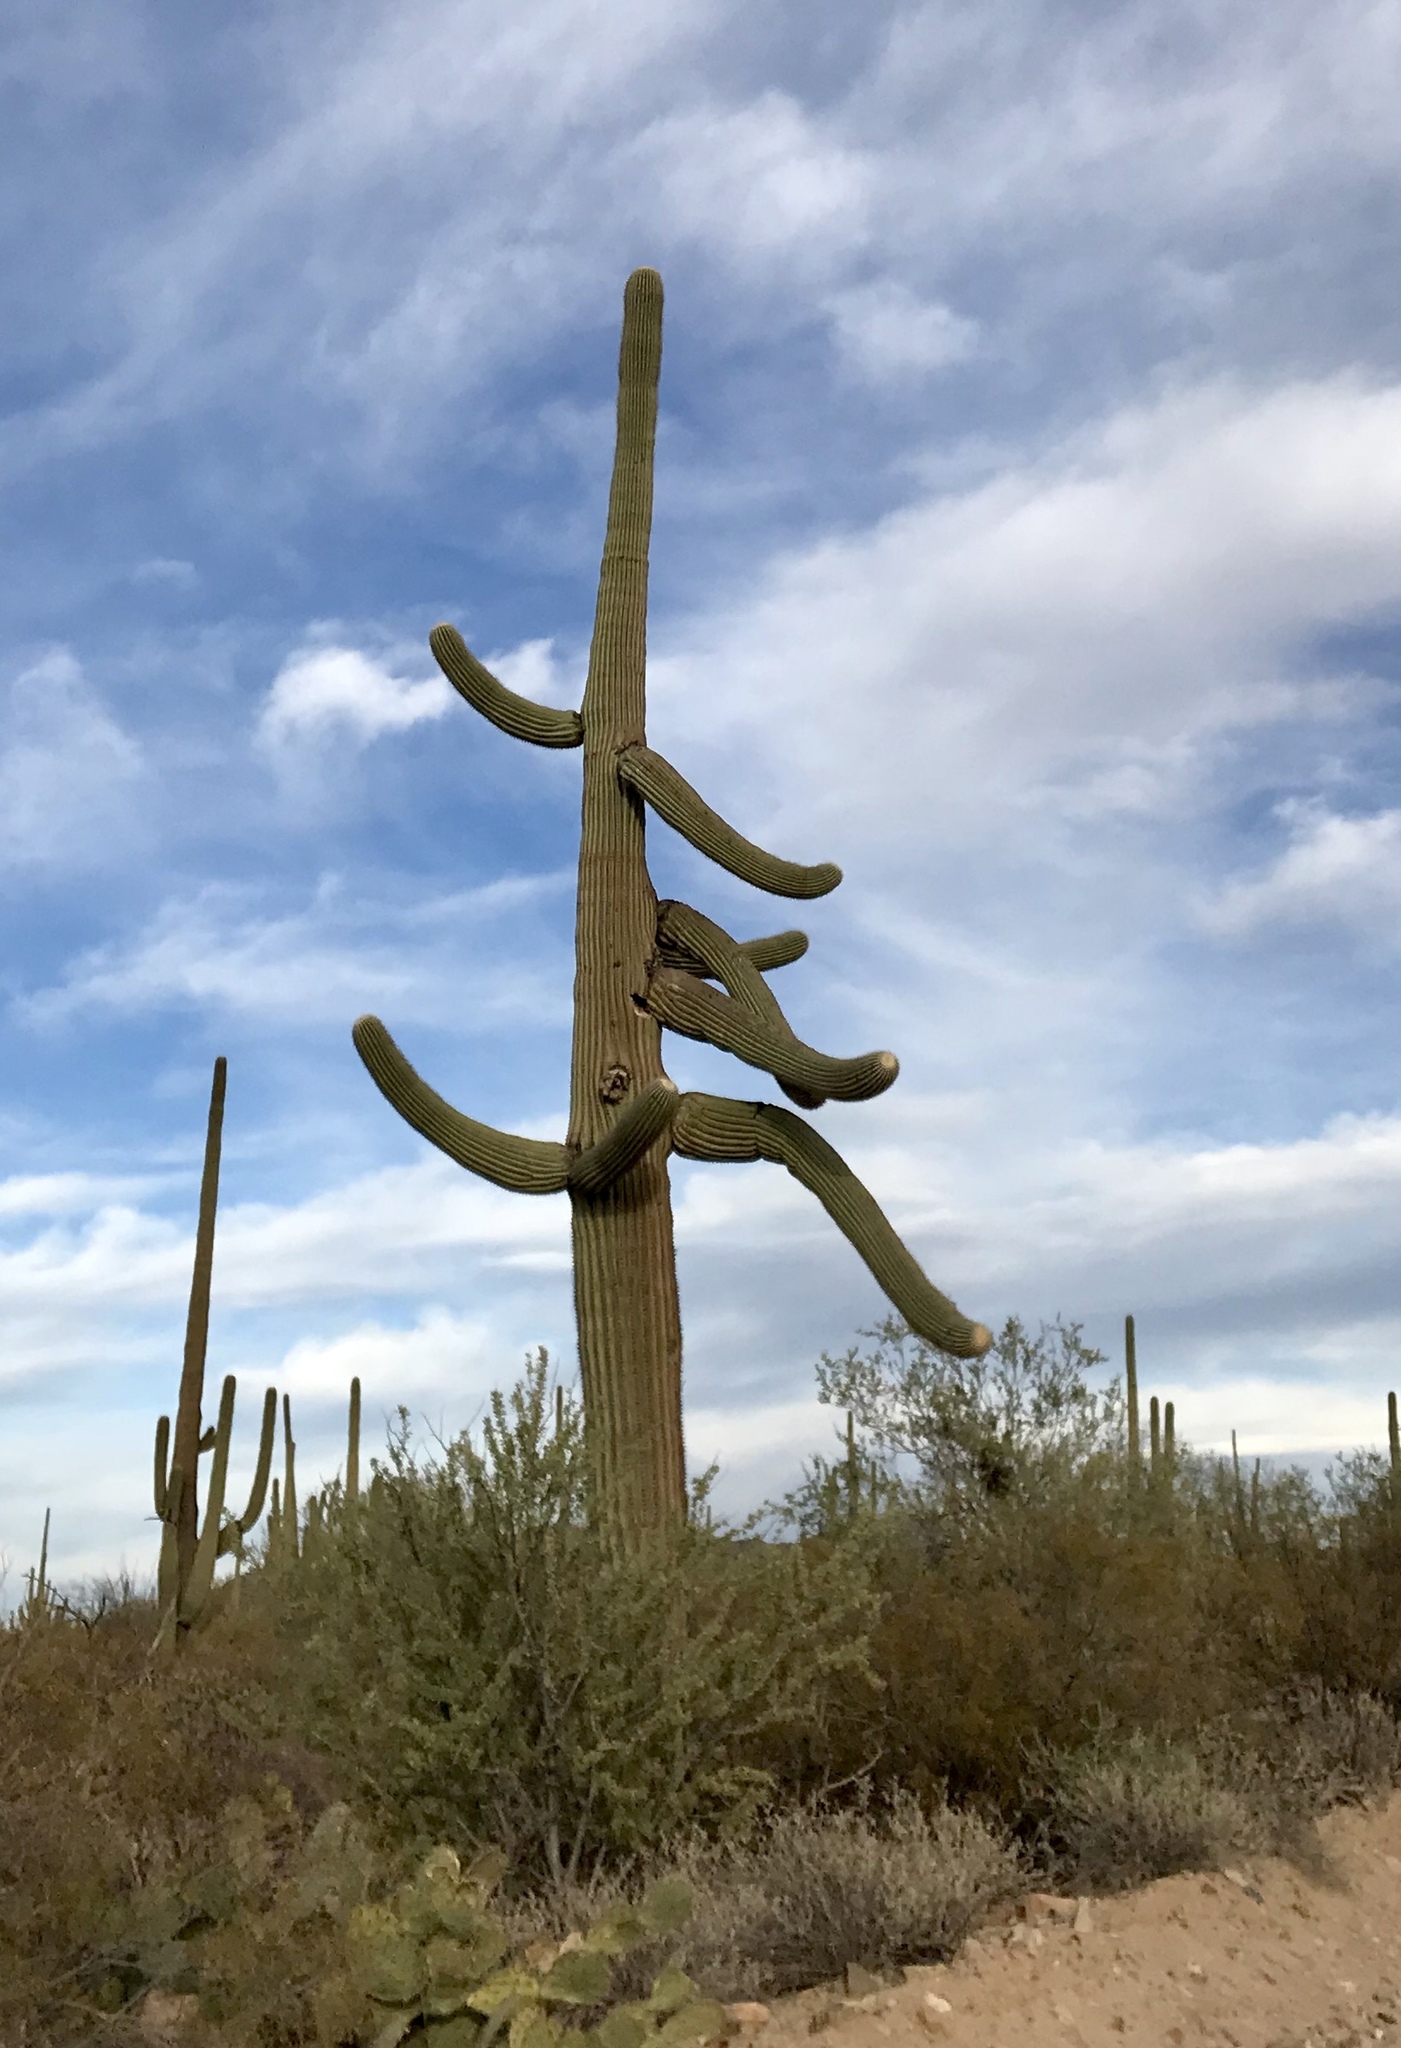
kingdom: Plantae
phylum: Tracheophyta
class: Magnoliopsida
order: Caryophyllales
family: Cactaceae
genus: Carnegiea
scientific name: Carnegiea gigantea
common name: Saguaro
